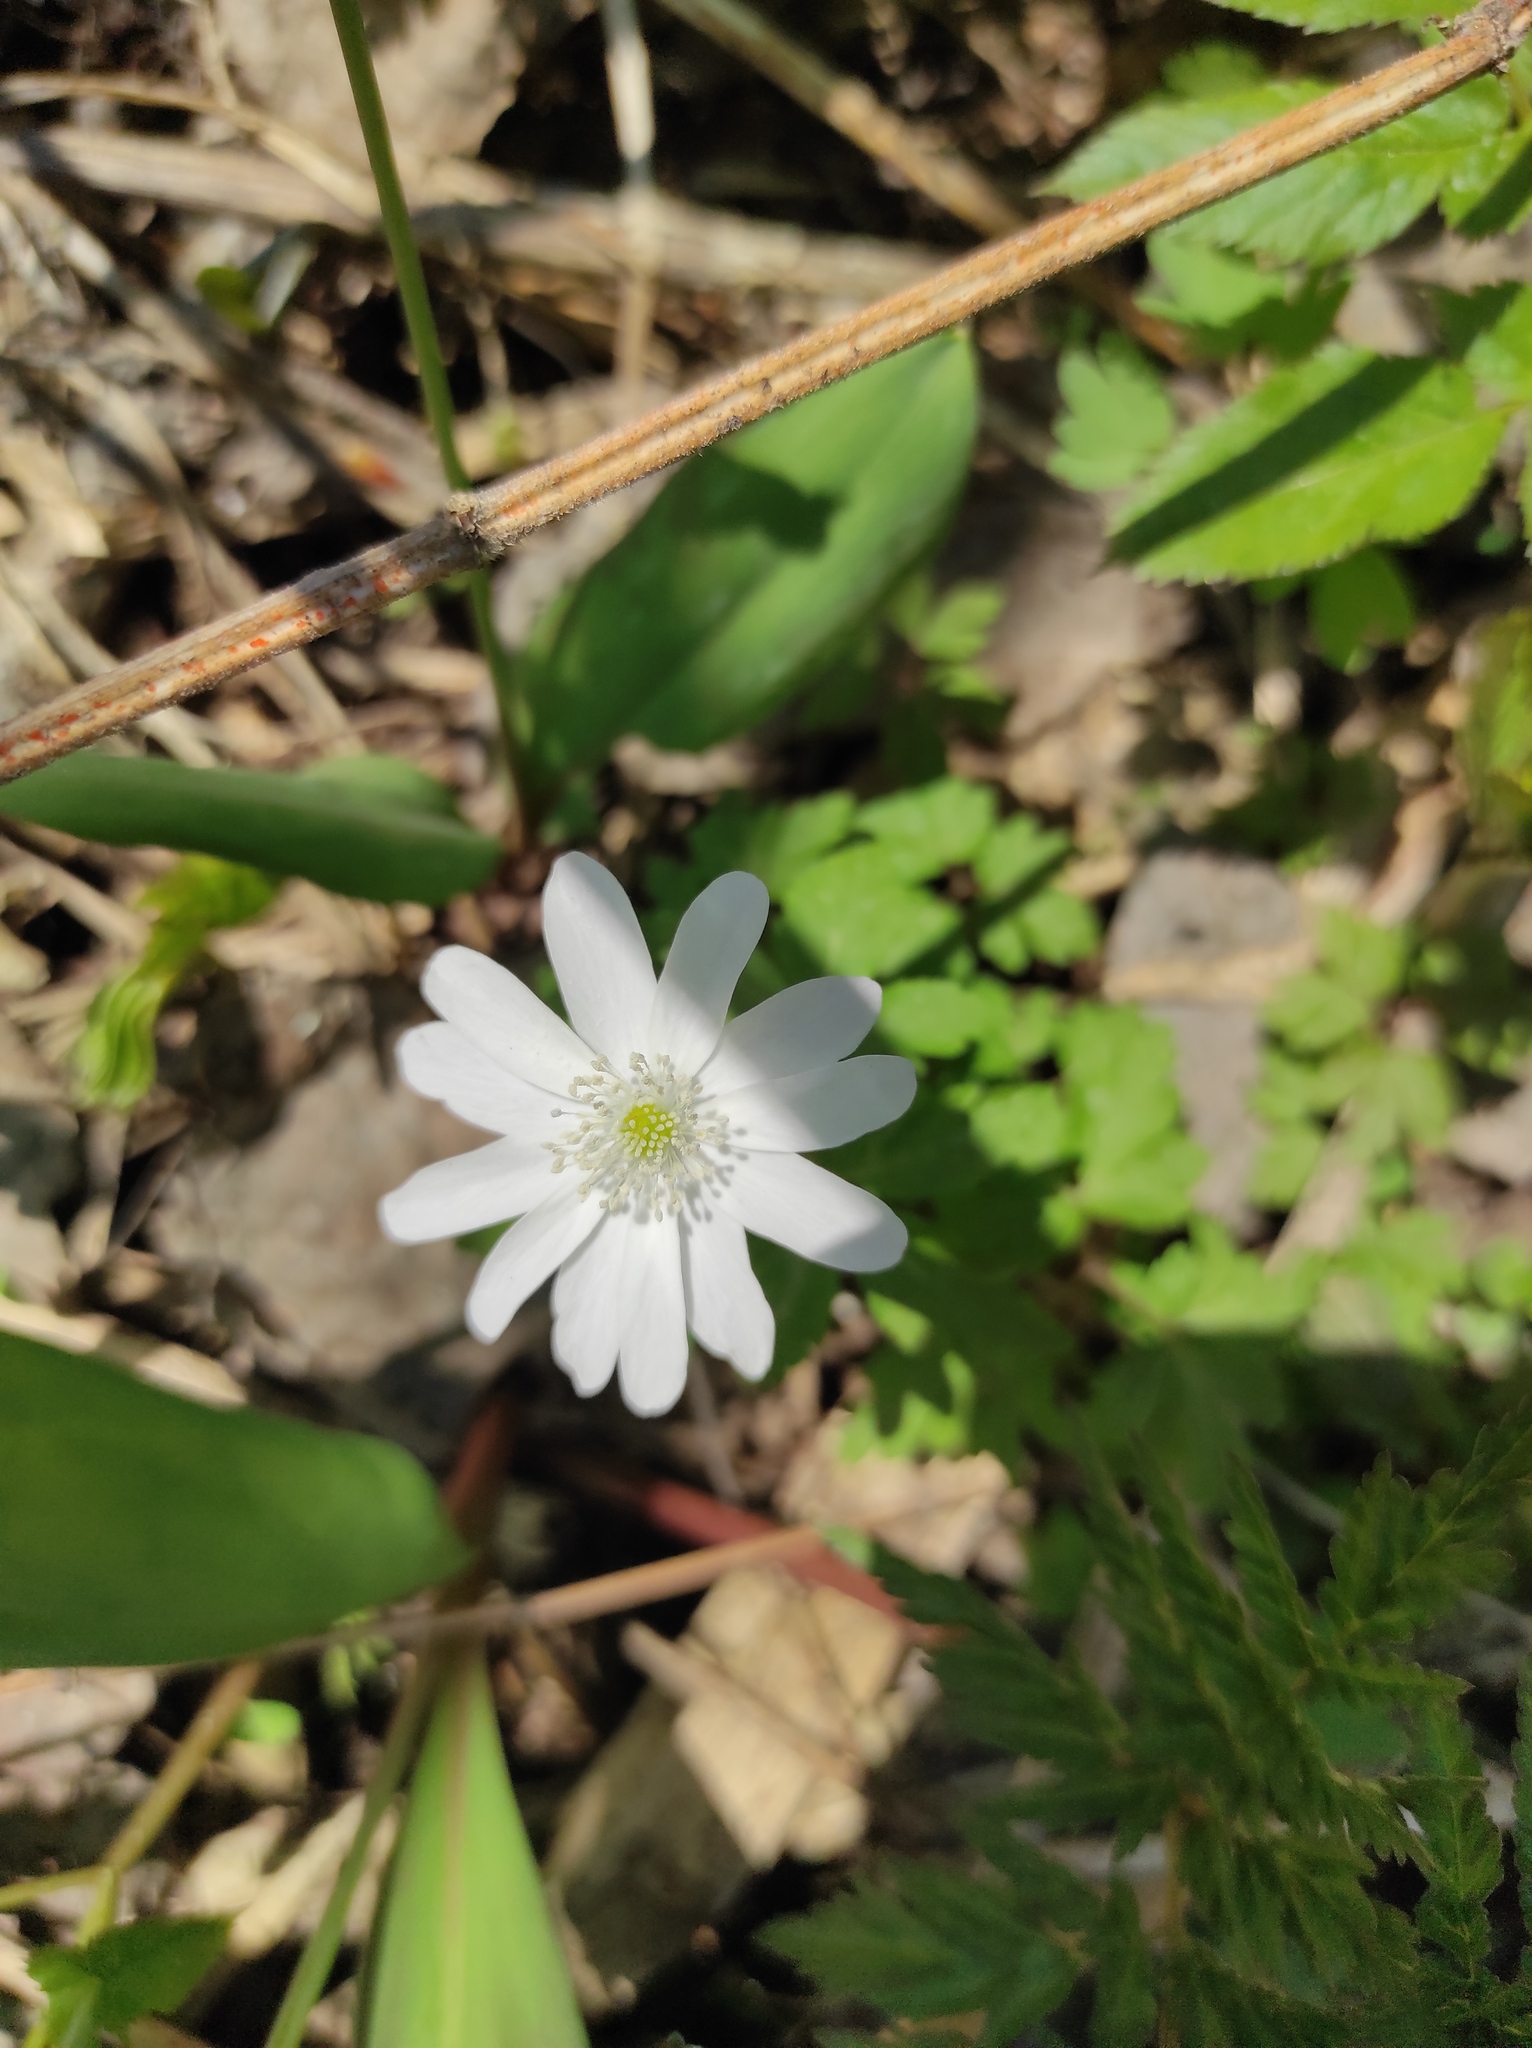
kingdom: Plantae
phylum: Tracheophyta
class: Magnoliopsida
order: Ranunculales
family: Ranunculaceae
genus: Anemone
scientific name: Anemone altaica
